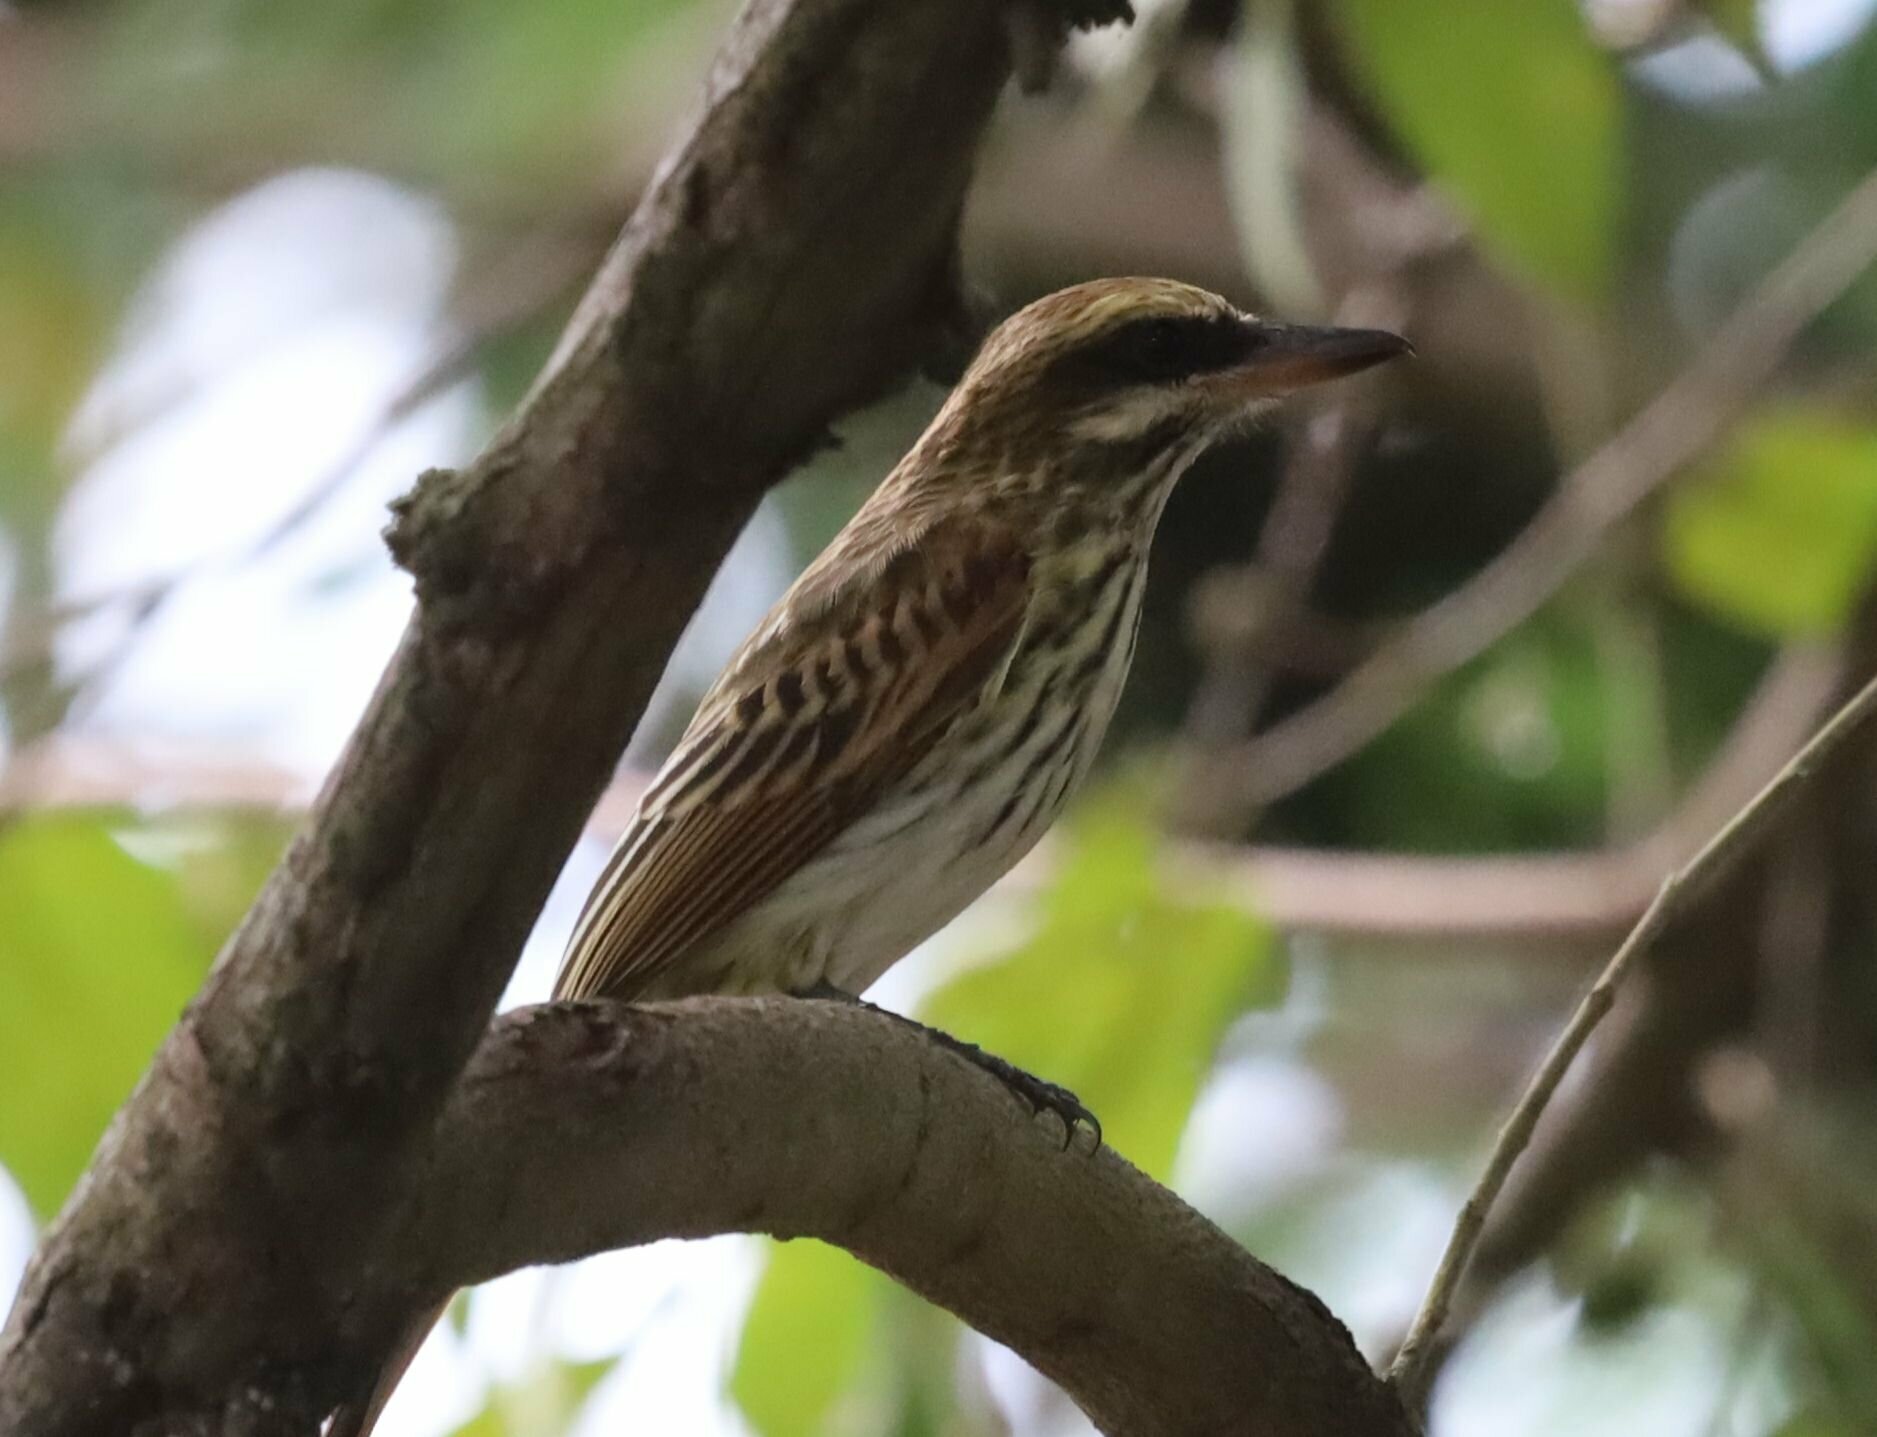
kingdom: Animalia
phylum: Chordata
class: Aves
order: Passeriformes
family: Tyrannidae
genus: Myiodynastes
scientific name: Myiodynastes maculatus
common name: Streaked flycatcher
